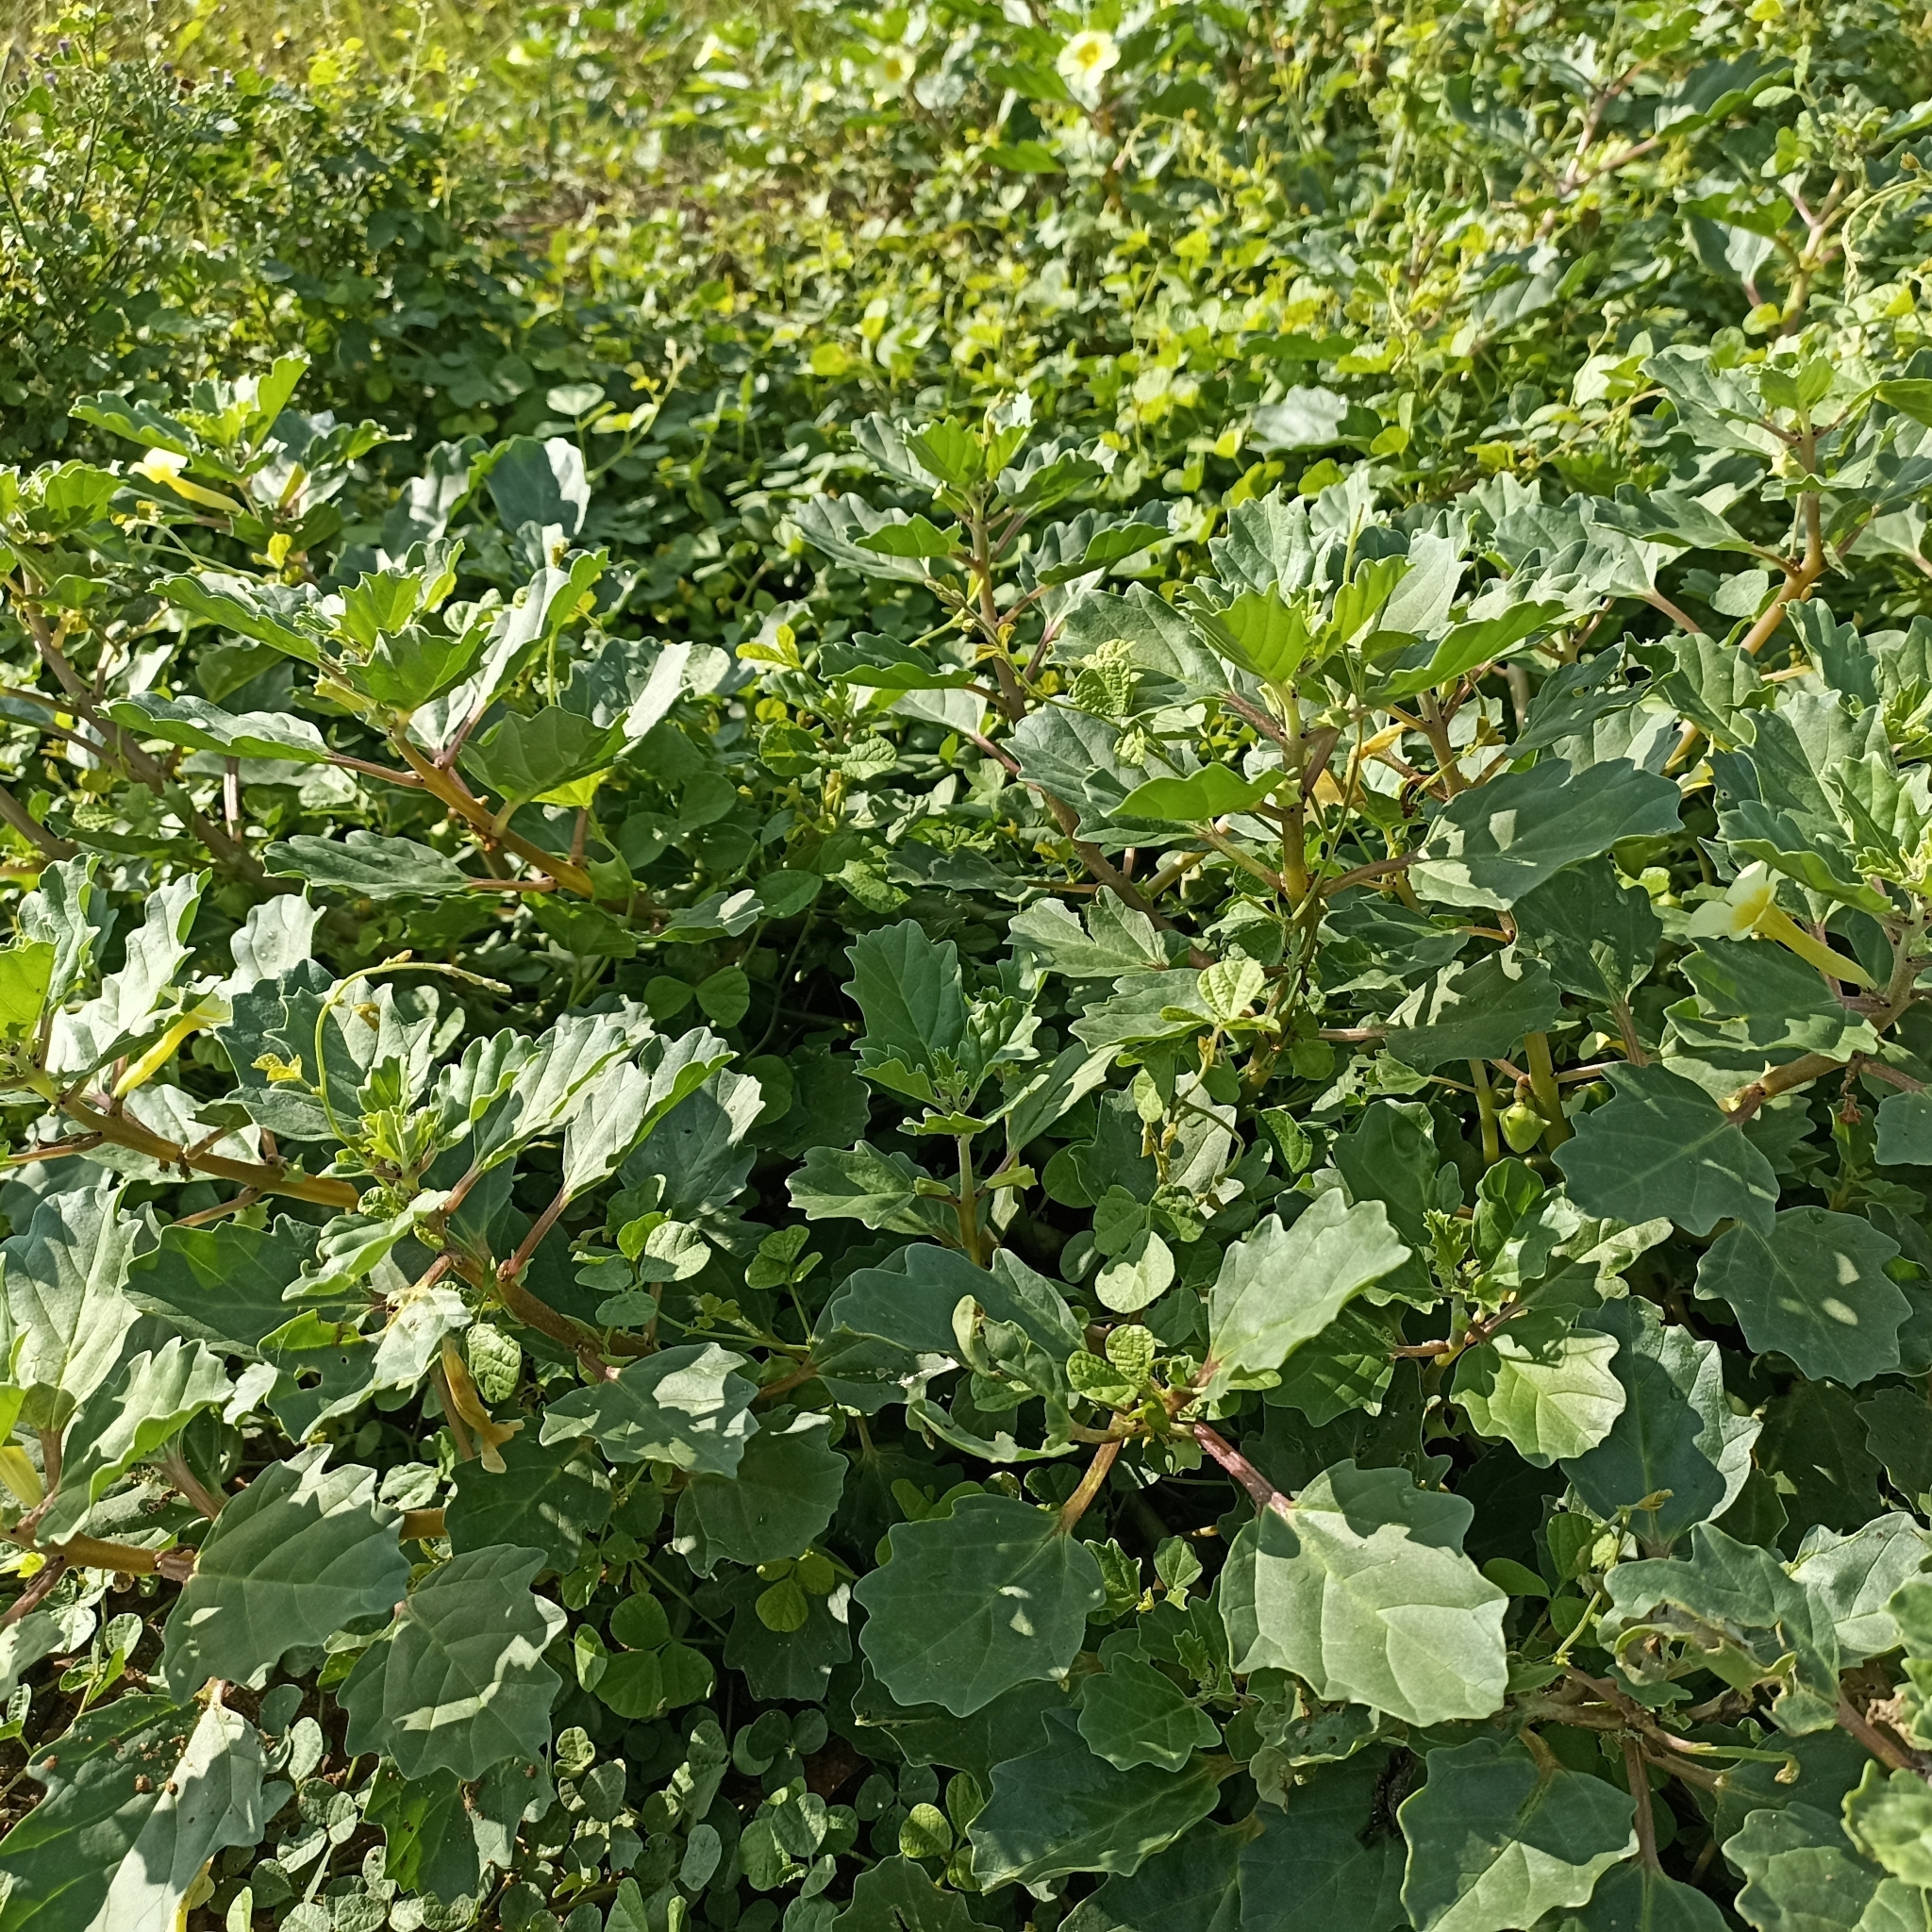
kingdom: Plantae
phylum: Tracheophyta
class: Magnoliopsida
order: Lamiales
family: Pedaliaceae
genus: Pedalium
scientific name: Pedalium murex
